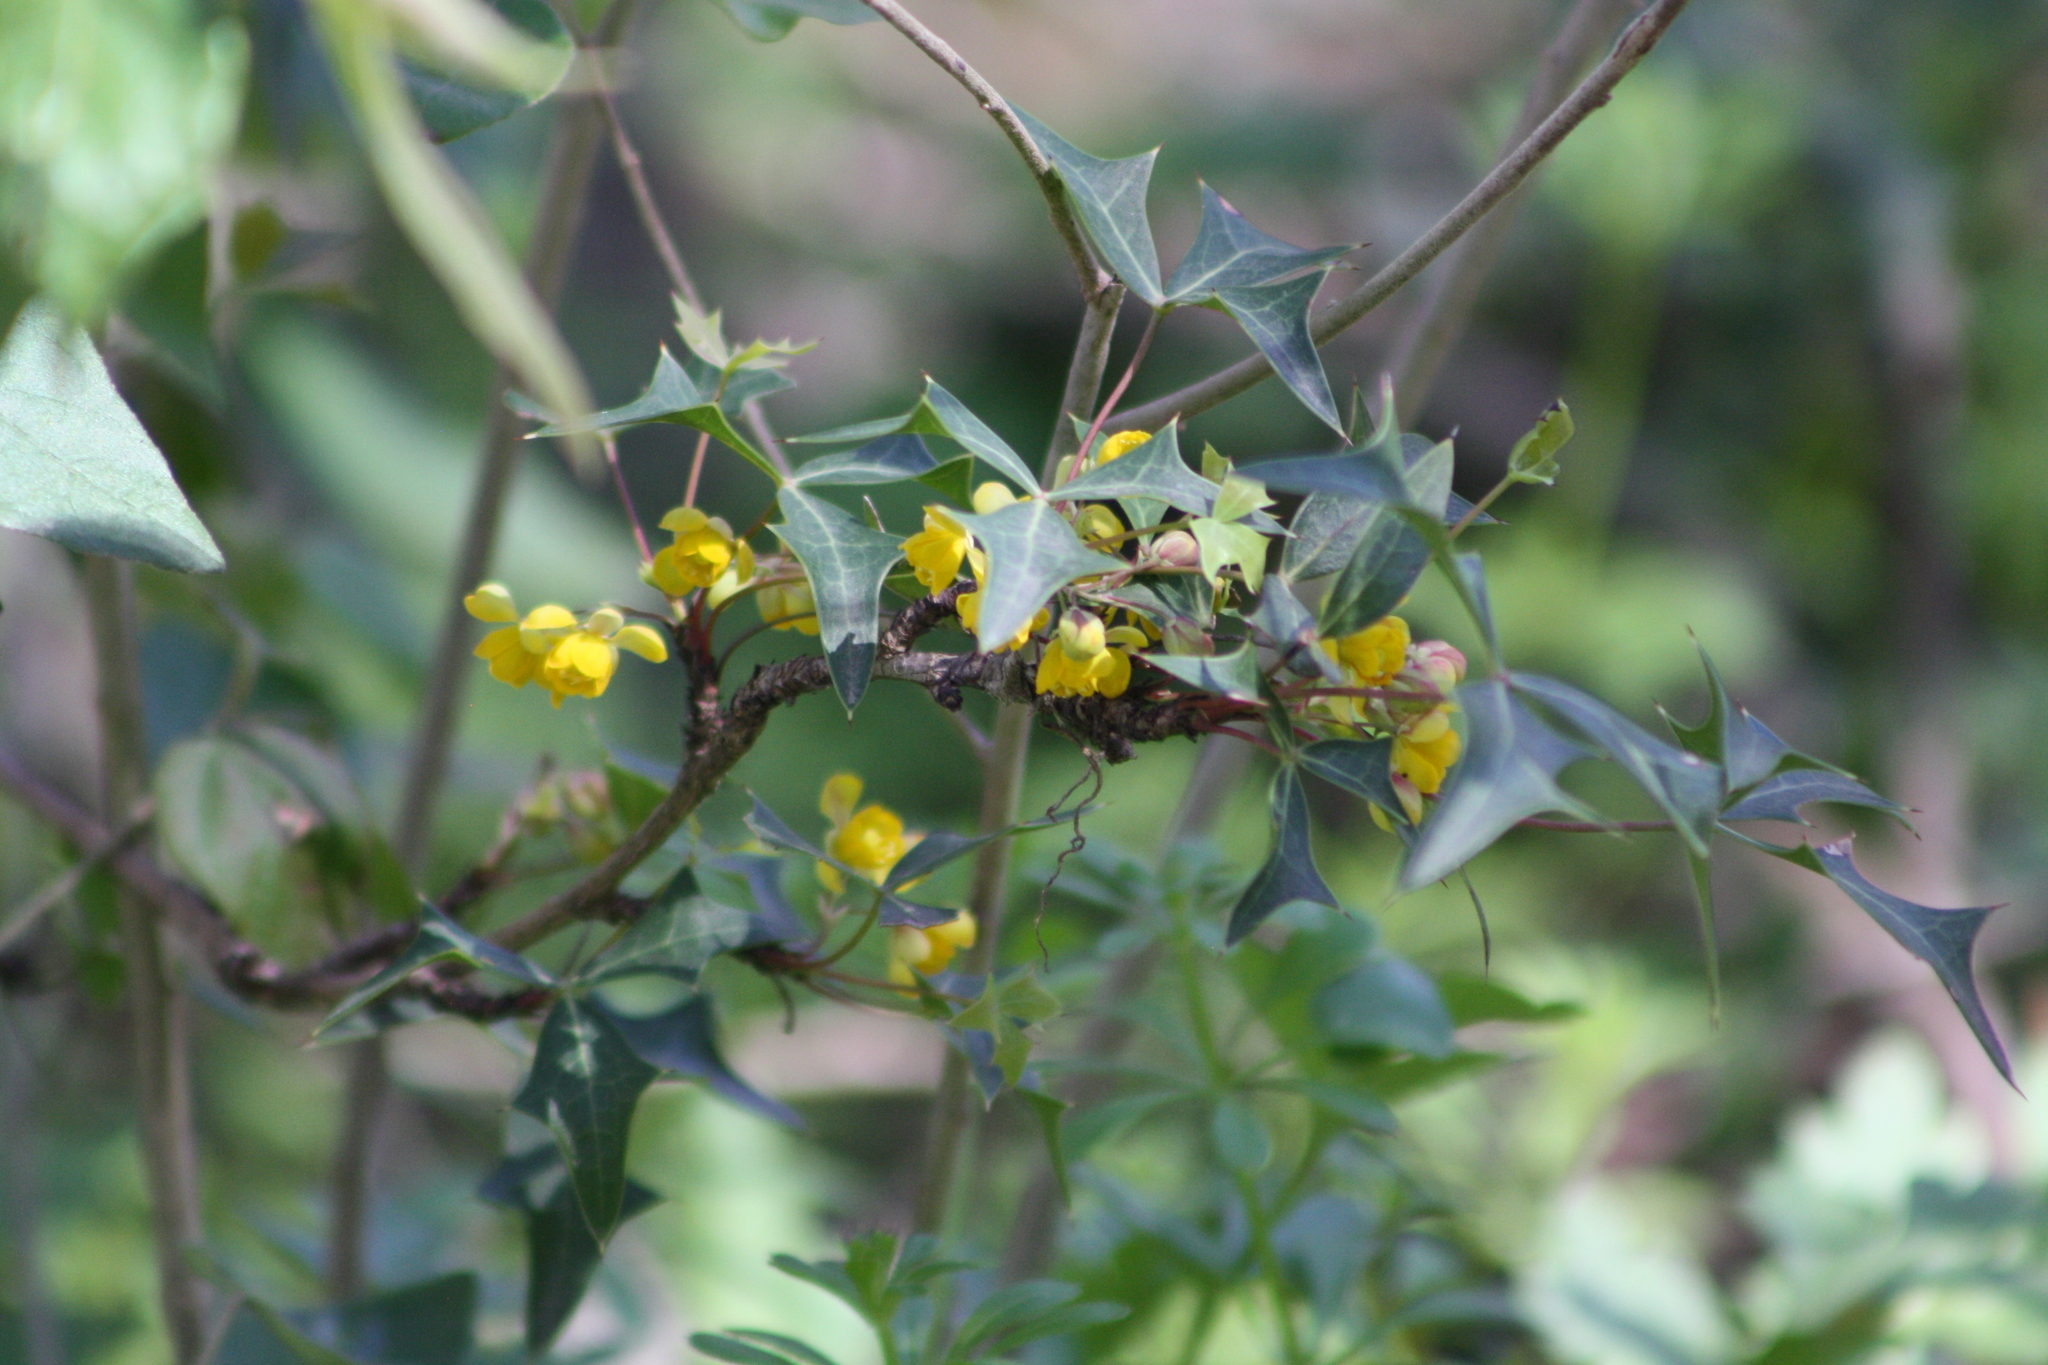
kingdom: Plantae
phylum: Tracheophyta
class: Magnoliopsida
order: Ranunculales
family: Berberidaceae
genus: Alloberberis
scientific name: Alloberberis trifoliolata
